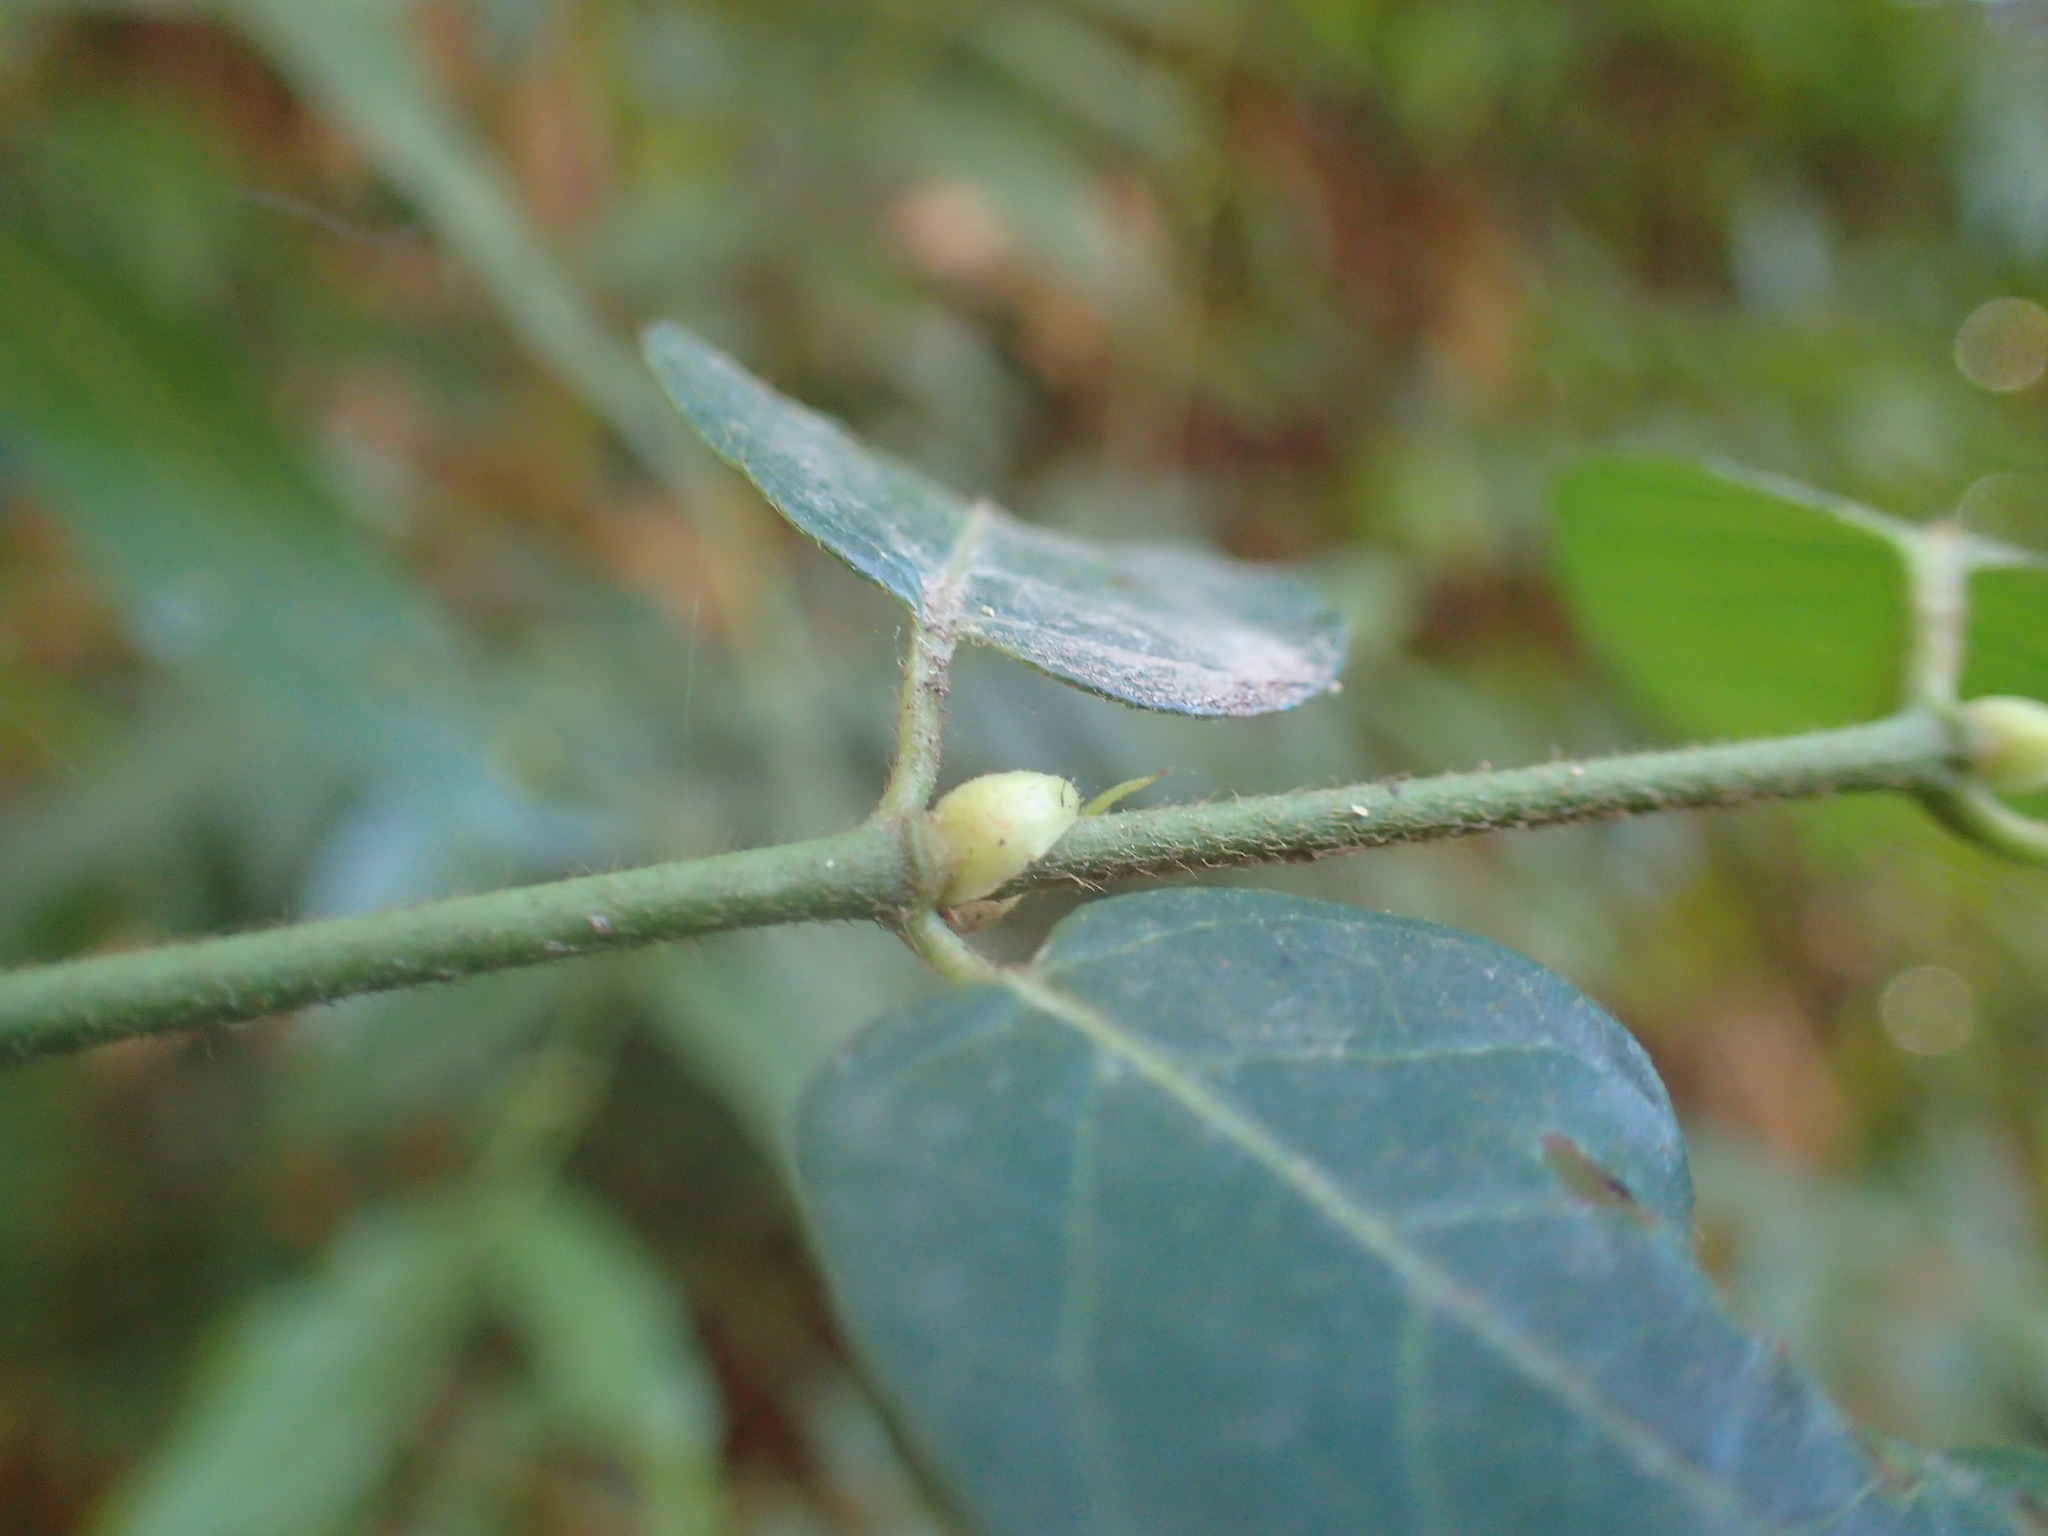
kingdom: Plantae
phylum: Tracheophyta
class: Magnoliopsida
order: Gentianales
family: Rubiaceae
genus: Keetia
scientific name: Keetia gueinzii
